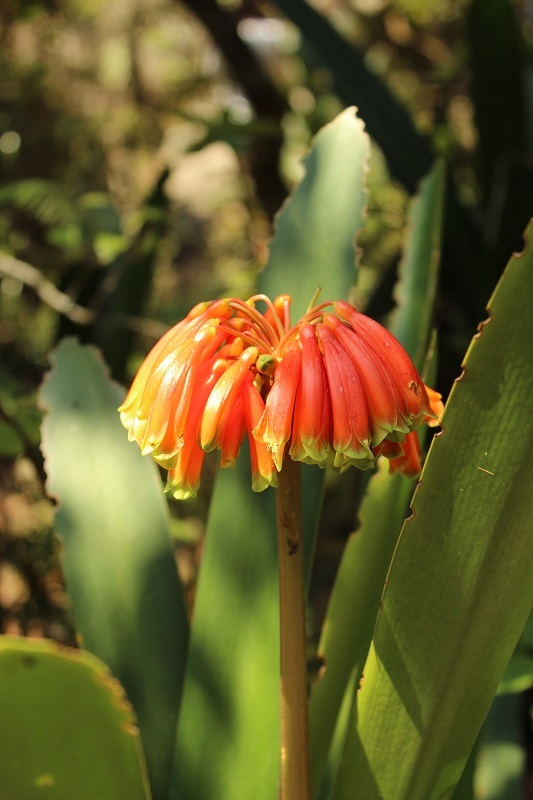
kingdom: Plantae
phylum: Tracheophyta
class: Liliopsida
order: Asparagales
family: Amaryllidaceae
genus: Clivia
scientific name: Clivia caulescens
